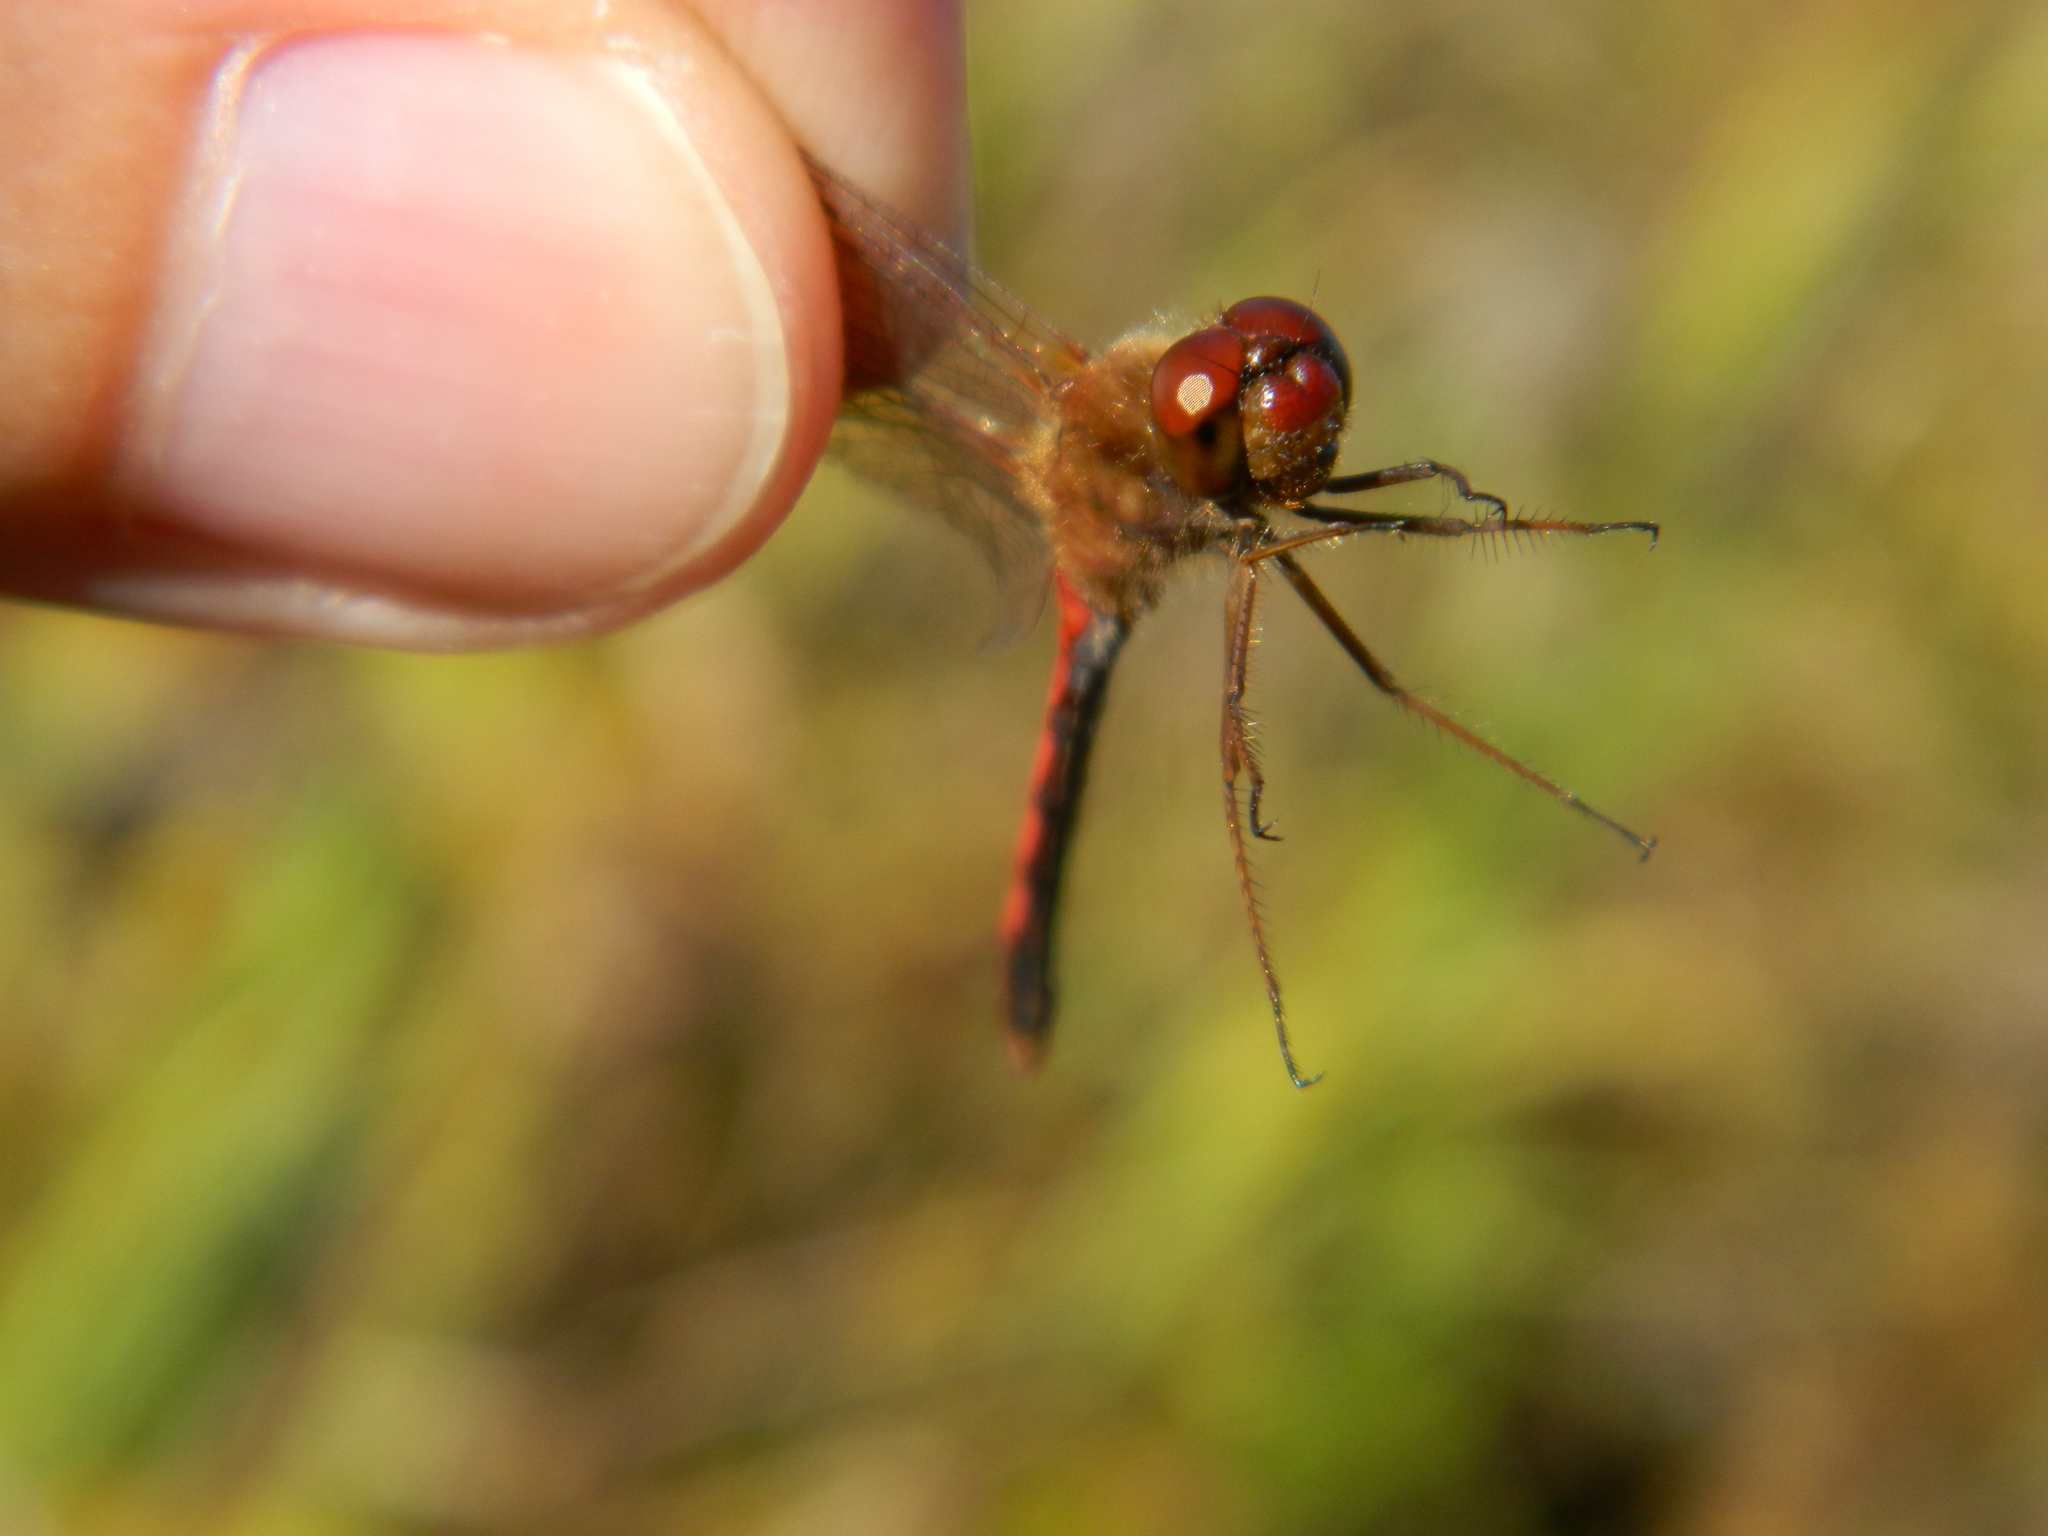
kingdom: Animalia
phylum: Arthropoda
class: Insecta
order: Odonata
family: Libellulidae
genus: Sympetrum
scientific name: Sympetrum vicinum
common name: Autumn meadowhawk
